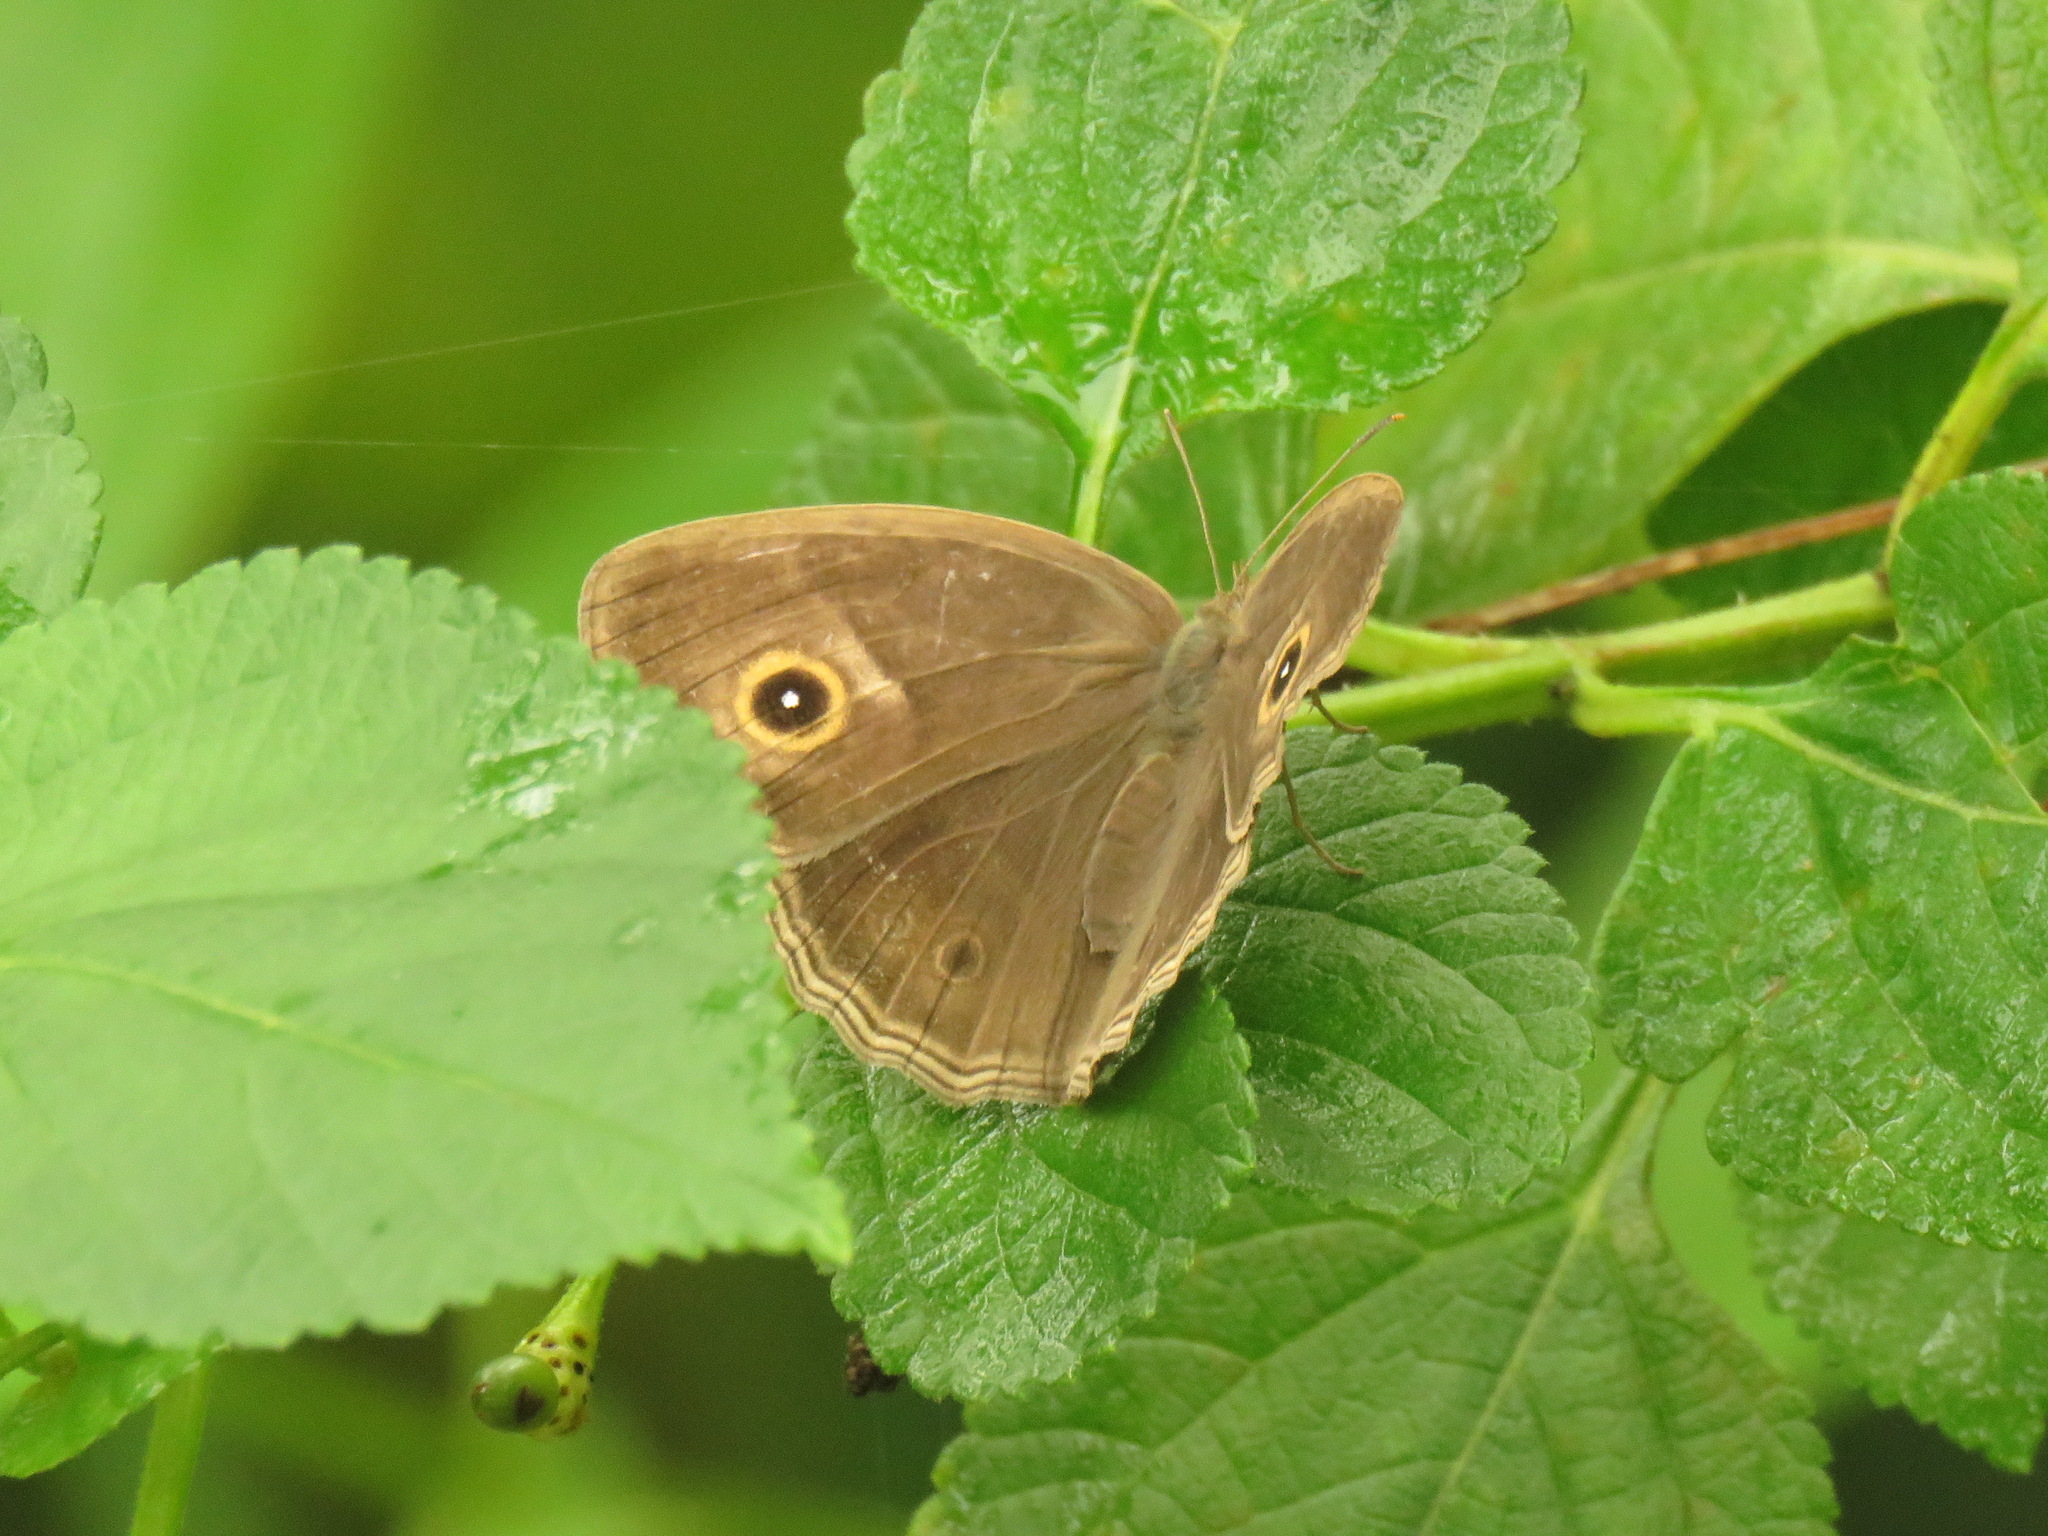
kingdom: Animalia
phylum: Arthropoda
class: Insecta
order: Lepidoptera
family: Nymphalidae
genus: Mycalesis
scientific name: Mycalesis mineus
